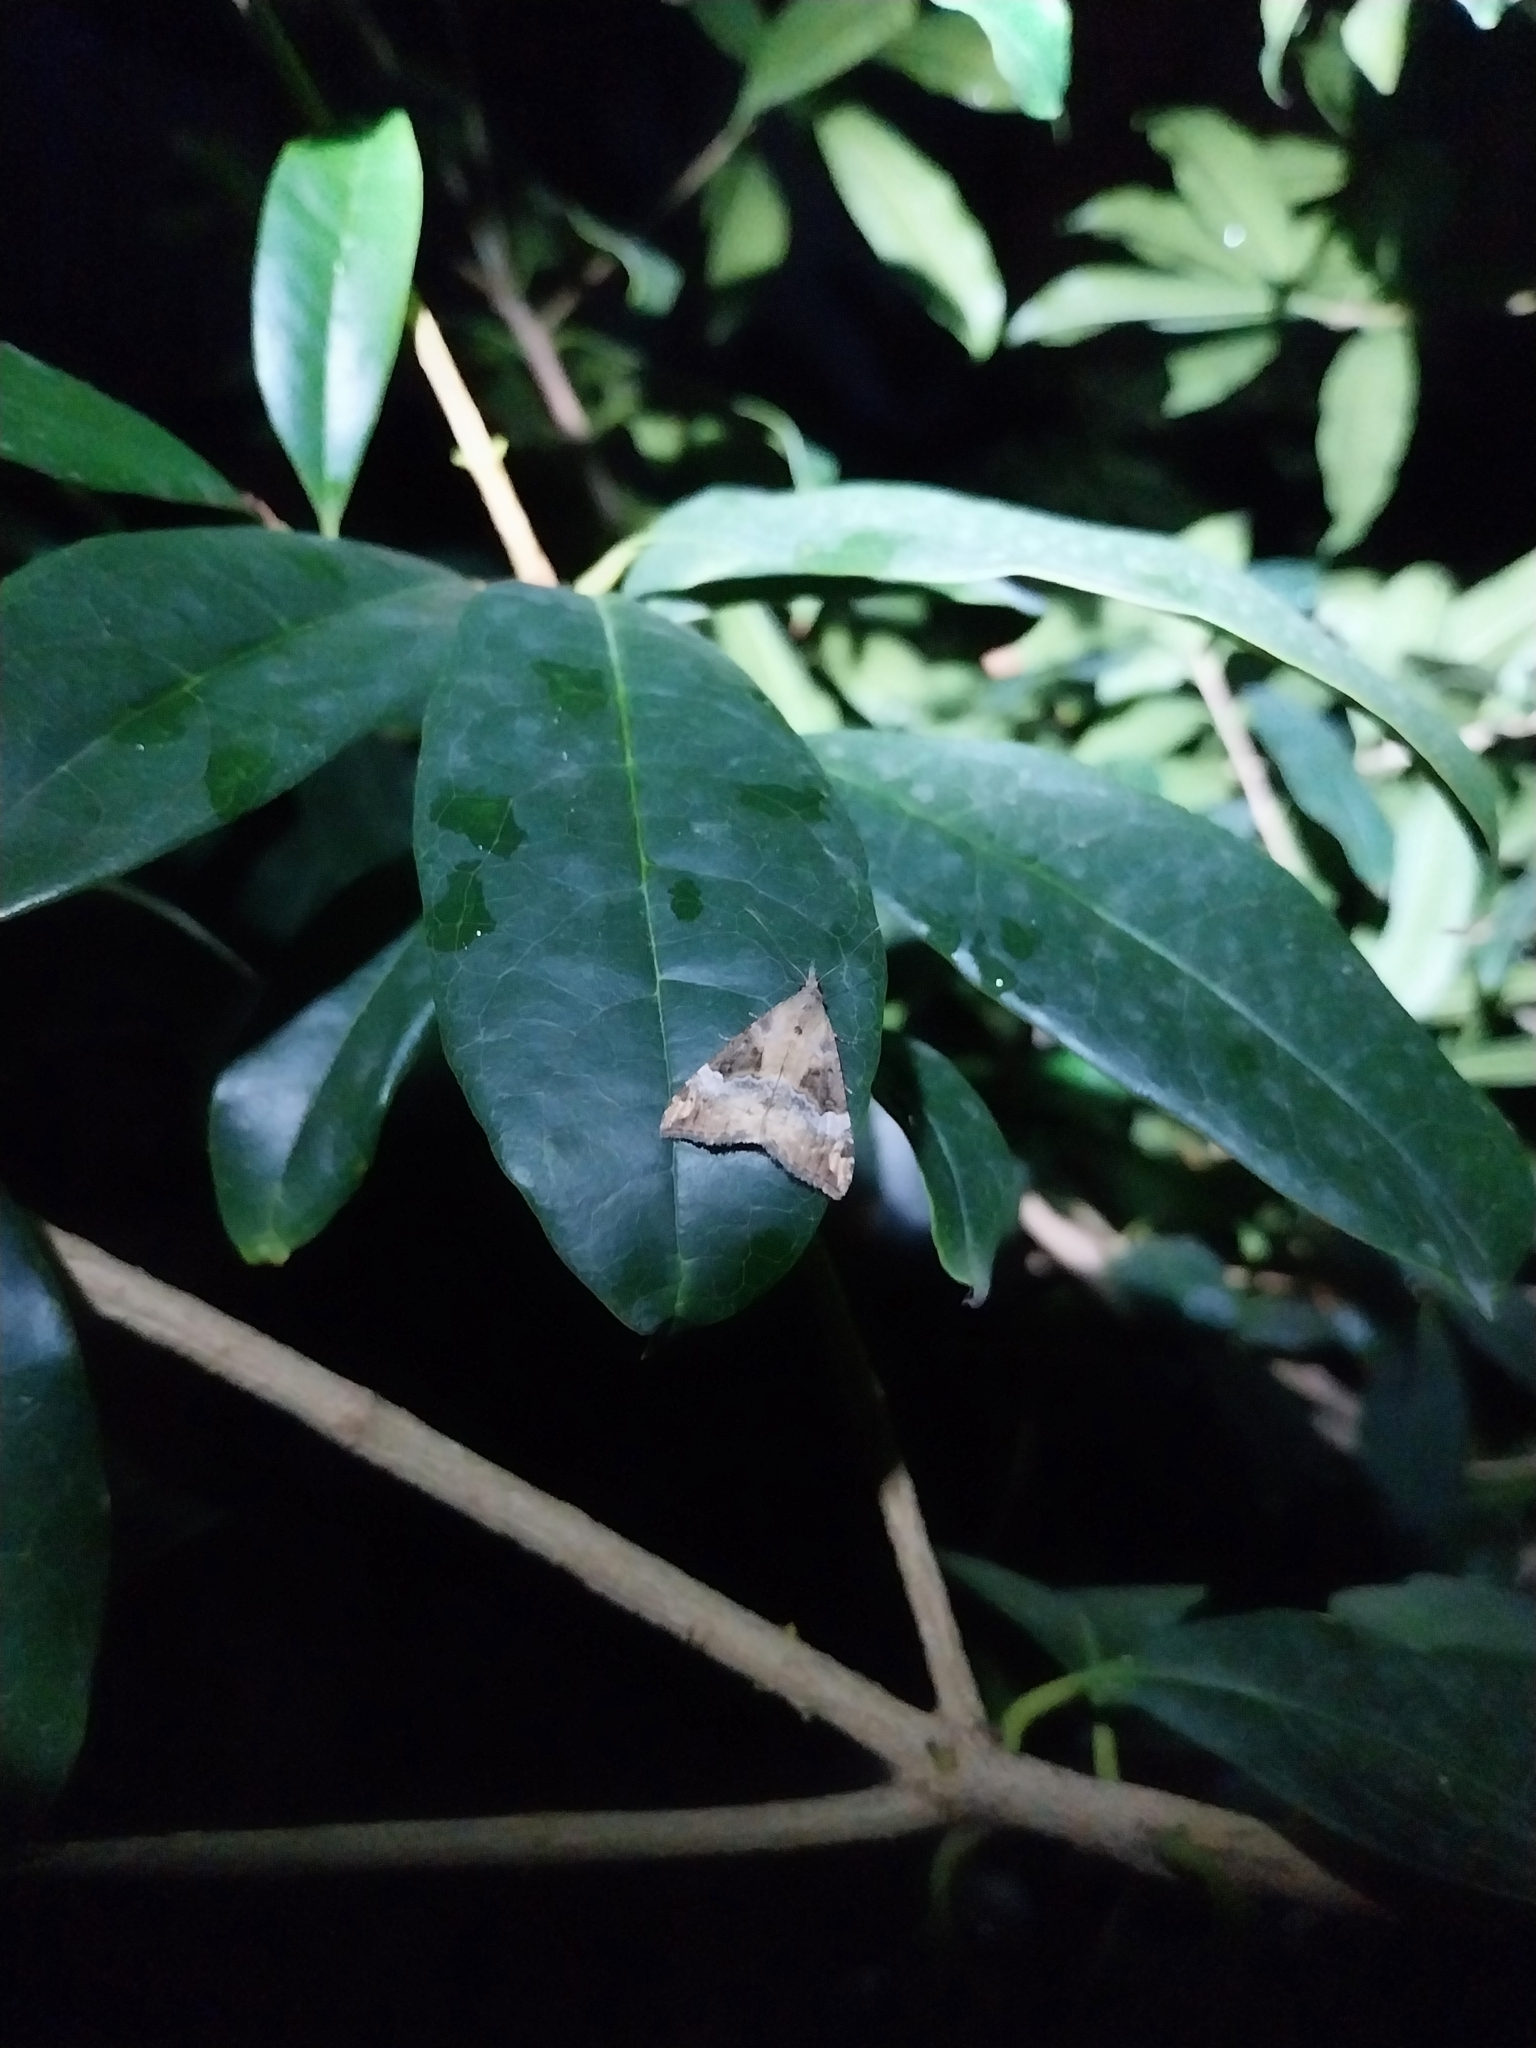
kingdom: Animalia
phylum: Arthropoda
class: Insecta
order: Lepidoptera
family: Erebidae
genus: Hypena
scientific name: Hypena obsitalis
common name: Bloxworth snout
